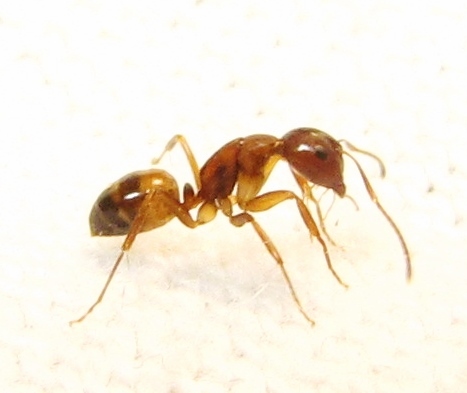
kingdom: Animalia
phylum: Arthropoda
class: Insecta
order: Hymenoptera
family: Formicidae
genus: Camponotus
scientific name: Camponotus snellingi
